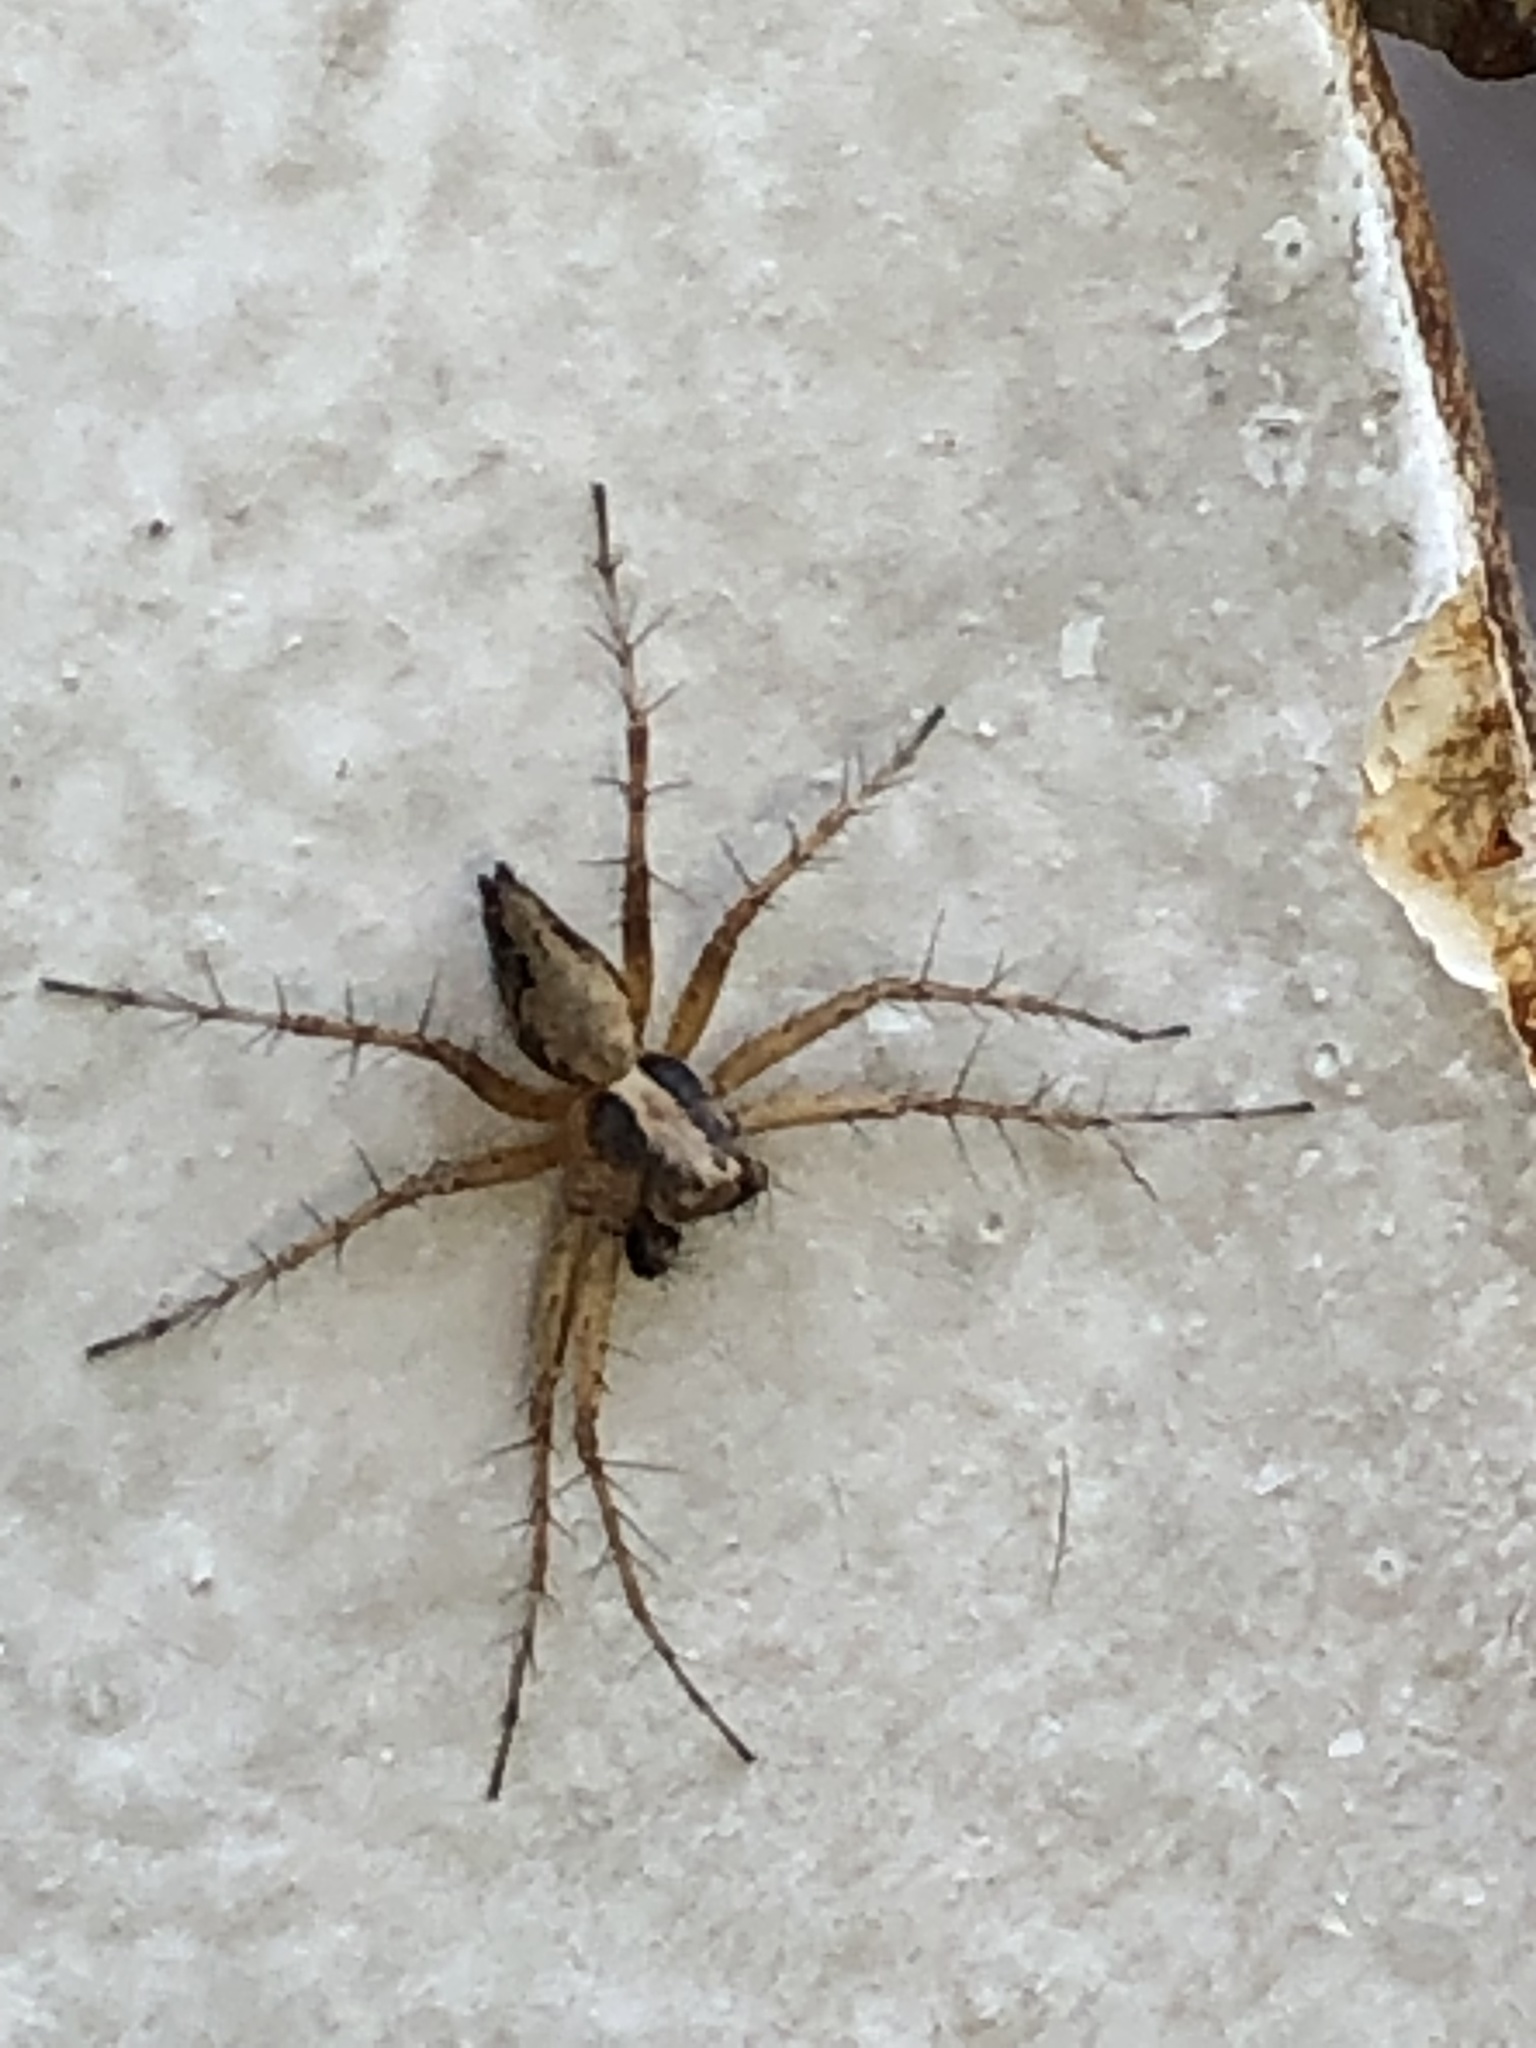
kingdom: Animalia
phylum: Arthropoda
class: Arachnida
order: Araneae
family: Oxyopidae
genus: Oxyopes
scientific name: Oxyopes scalaris
